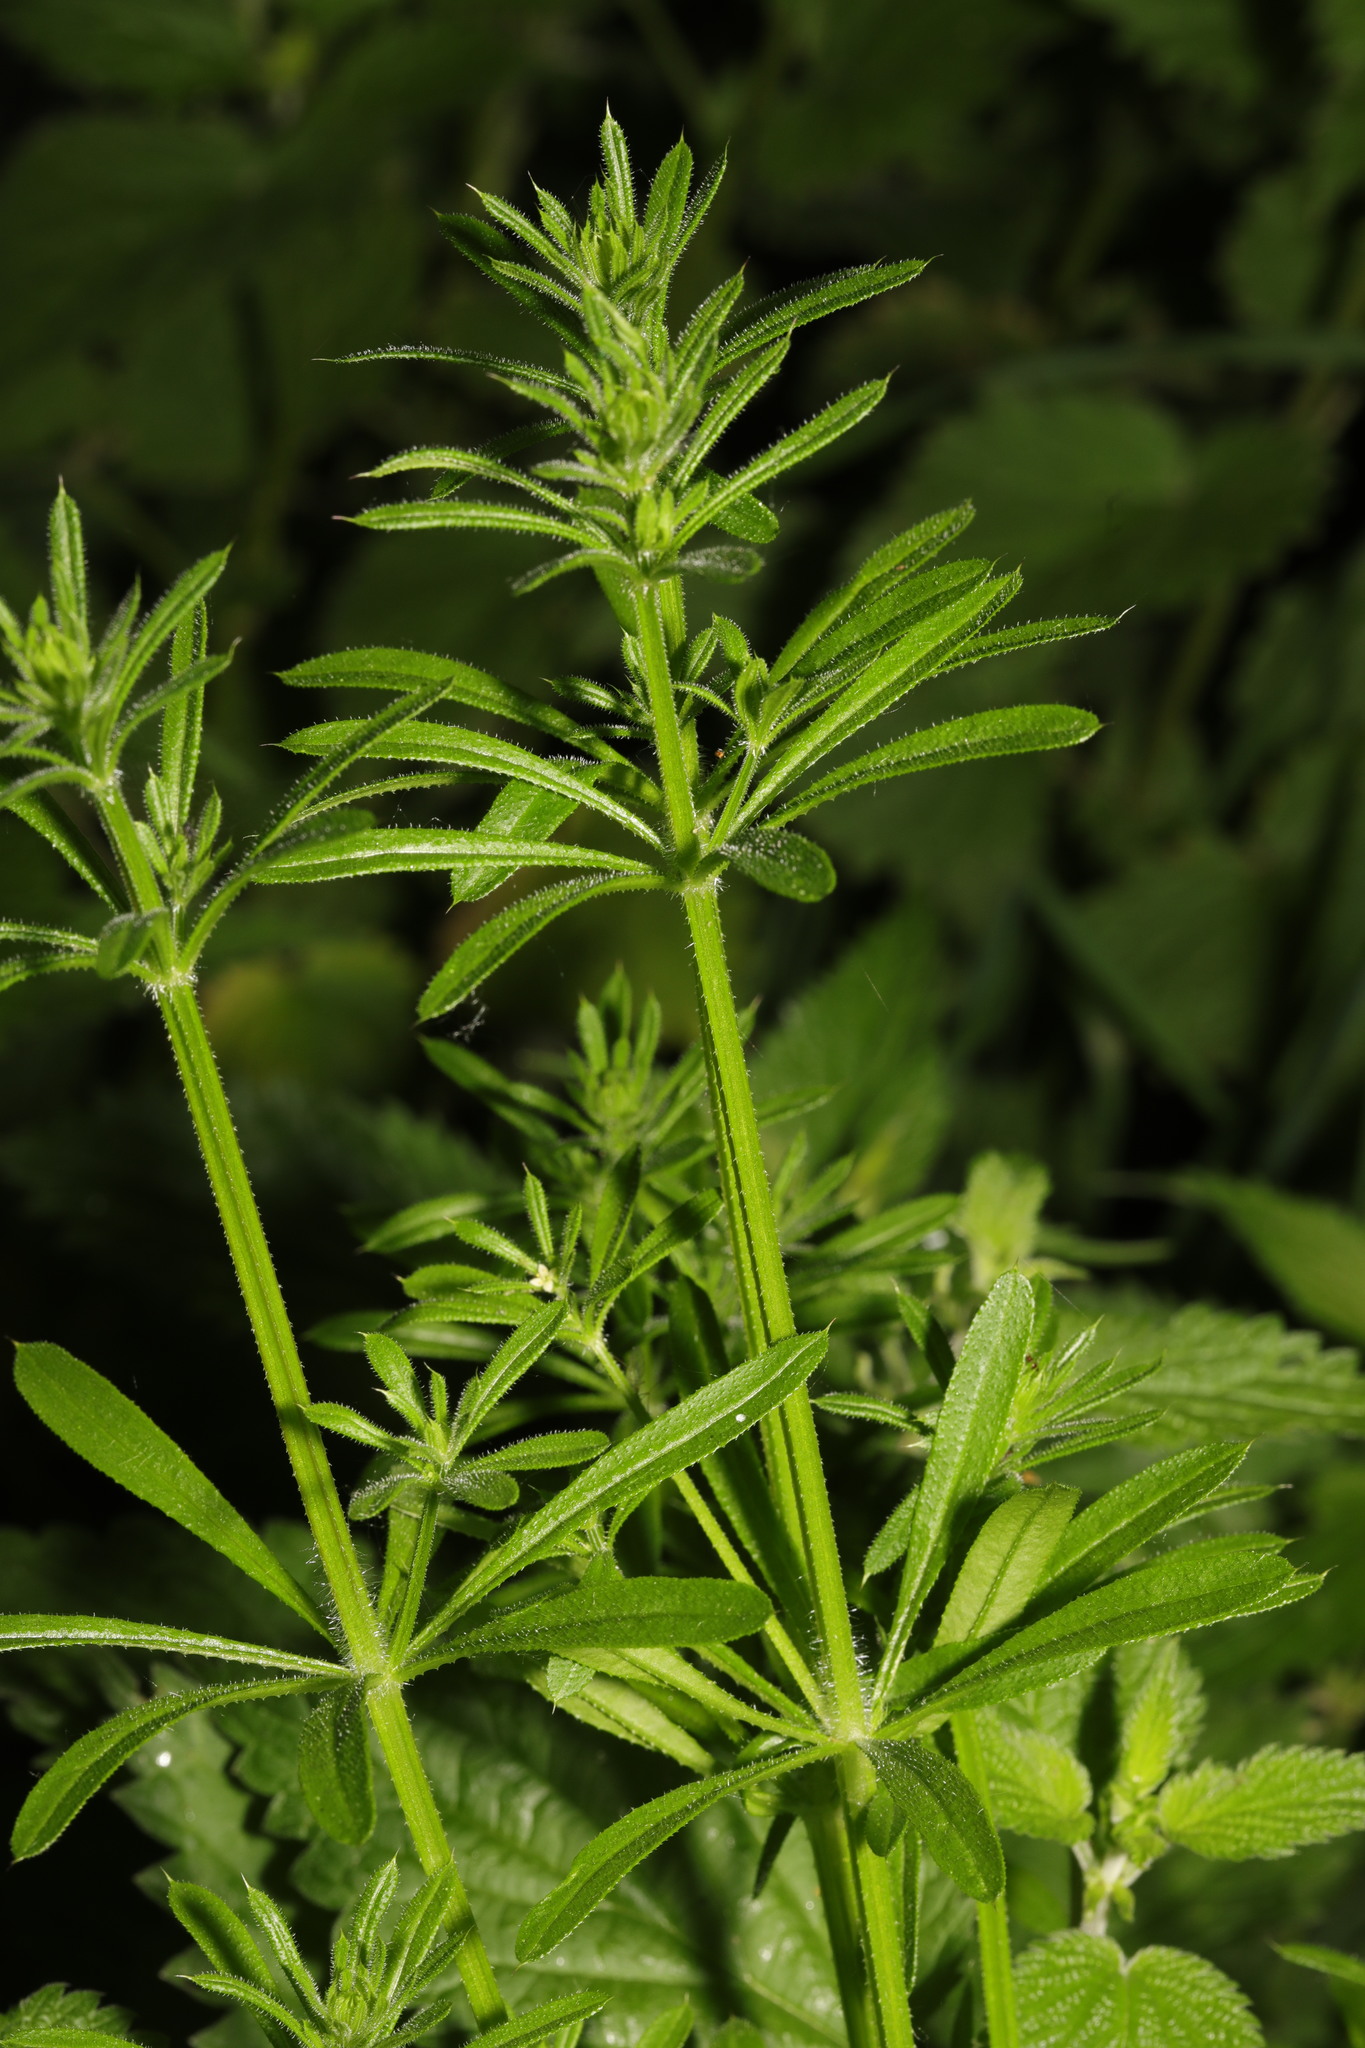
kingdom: Plantae
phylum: Tracheophyta
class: Magnoliopsida
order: Gentianales
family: Rubiaceae
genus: Galium
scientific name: Galium aparine
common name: Cleavers
